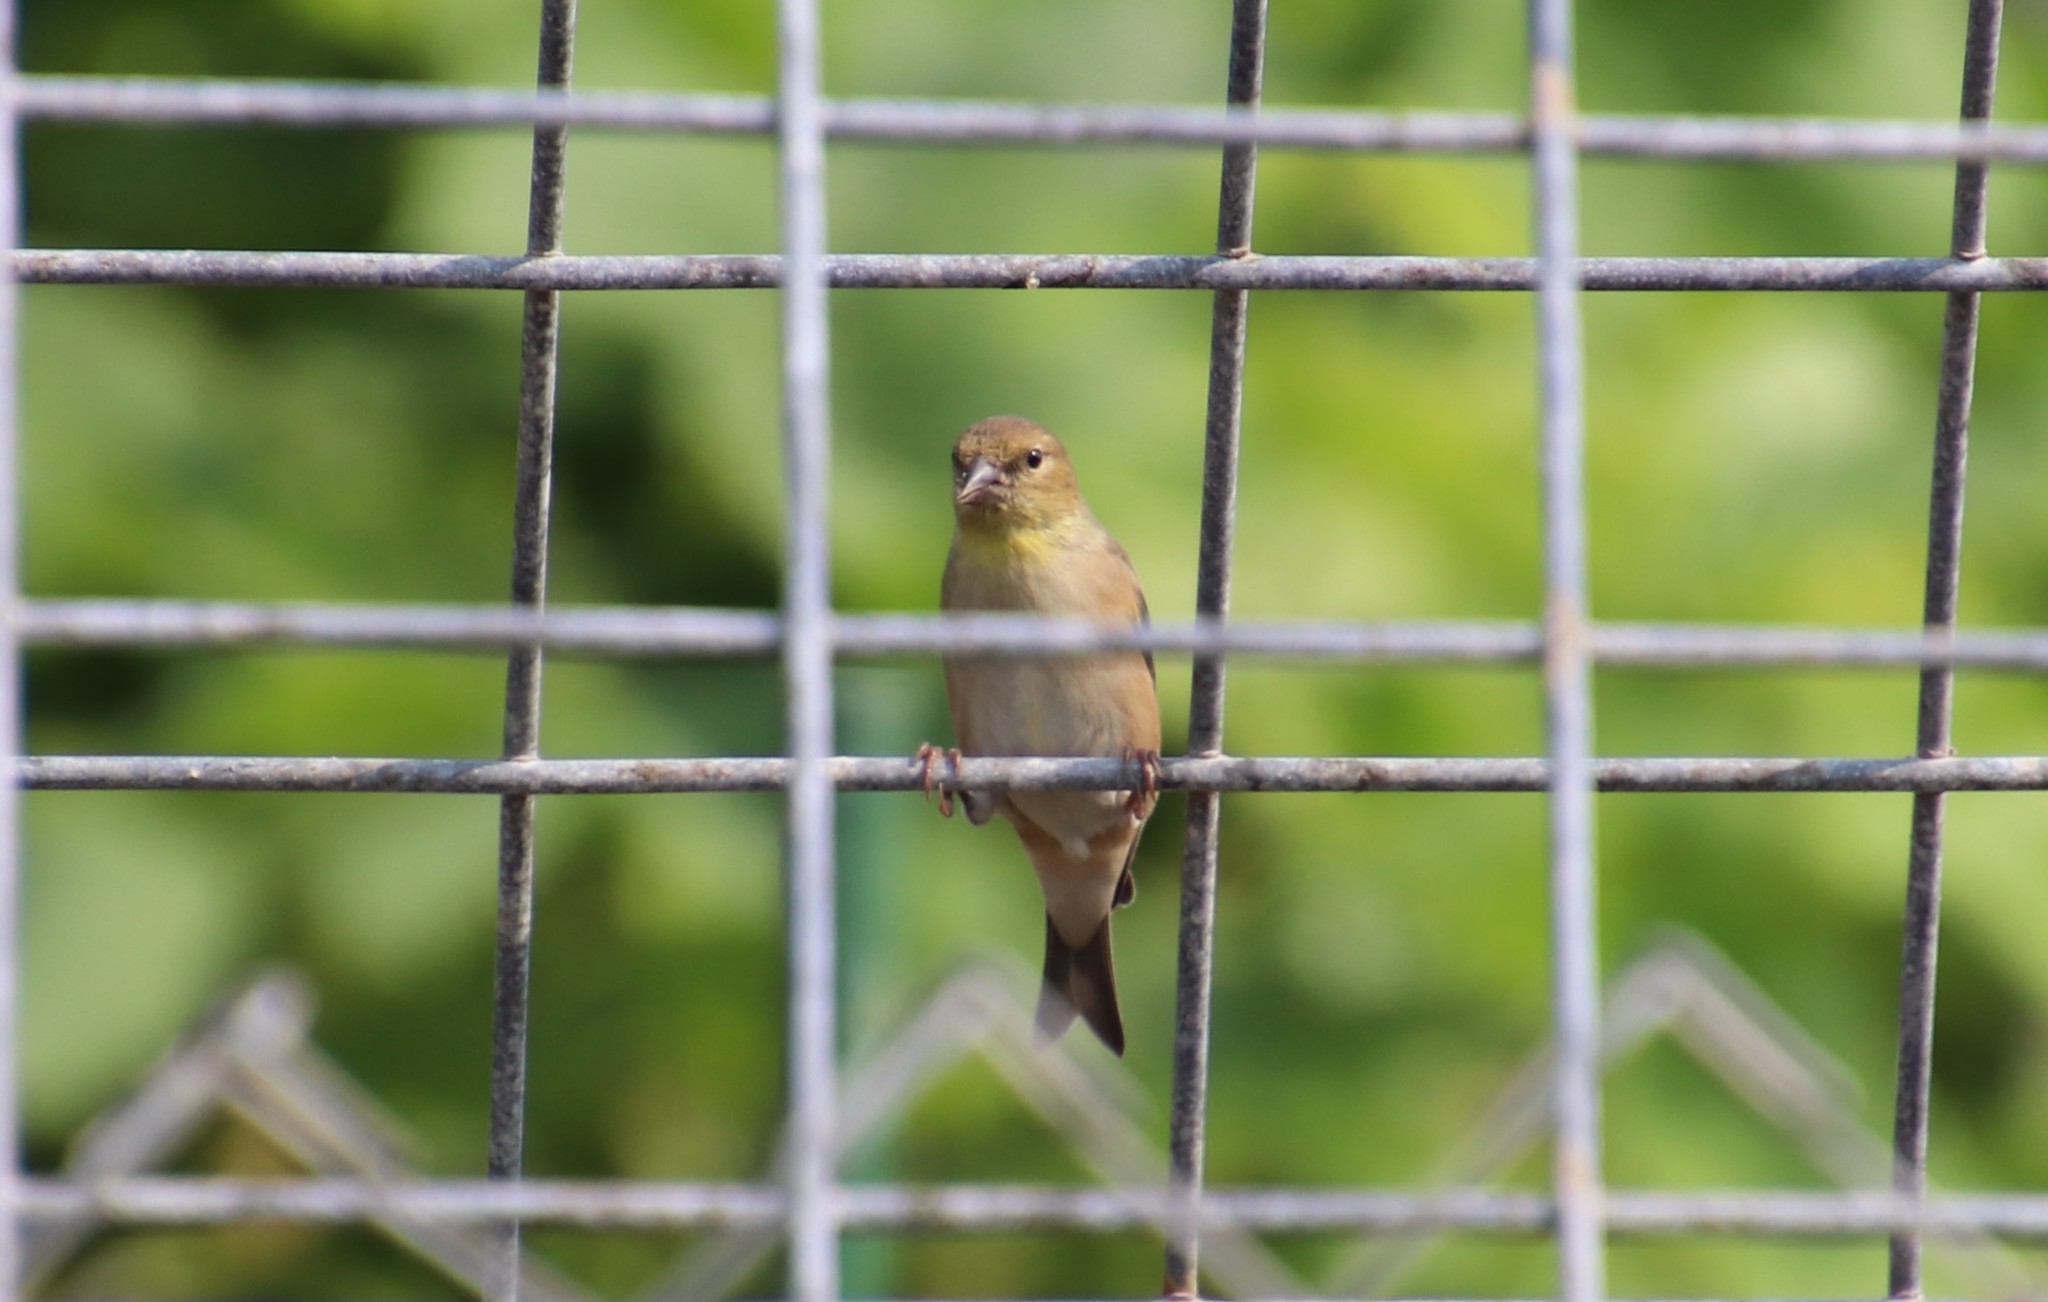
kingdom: Animalia
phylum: Chordata
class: Aves
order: Passeriformes
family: Fringillidae
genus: Spinus
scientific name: Spinus tristis
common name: American goldfinch
